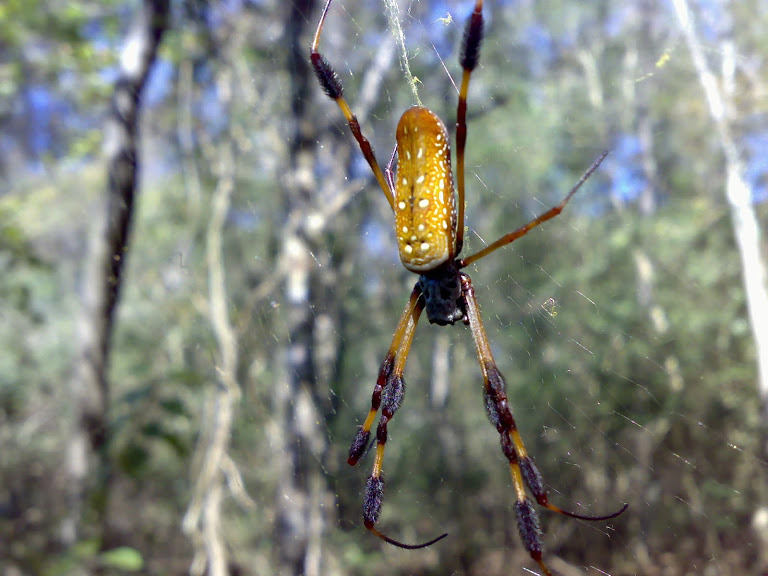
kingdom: Animalia
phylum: Arthropoda
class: Arachnida
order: Araneae
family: Araneidae
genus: Trichonephila
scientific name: Trichonephila clavipes
